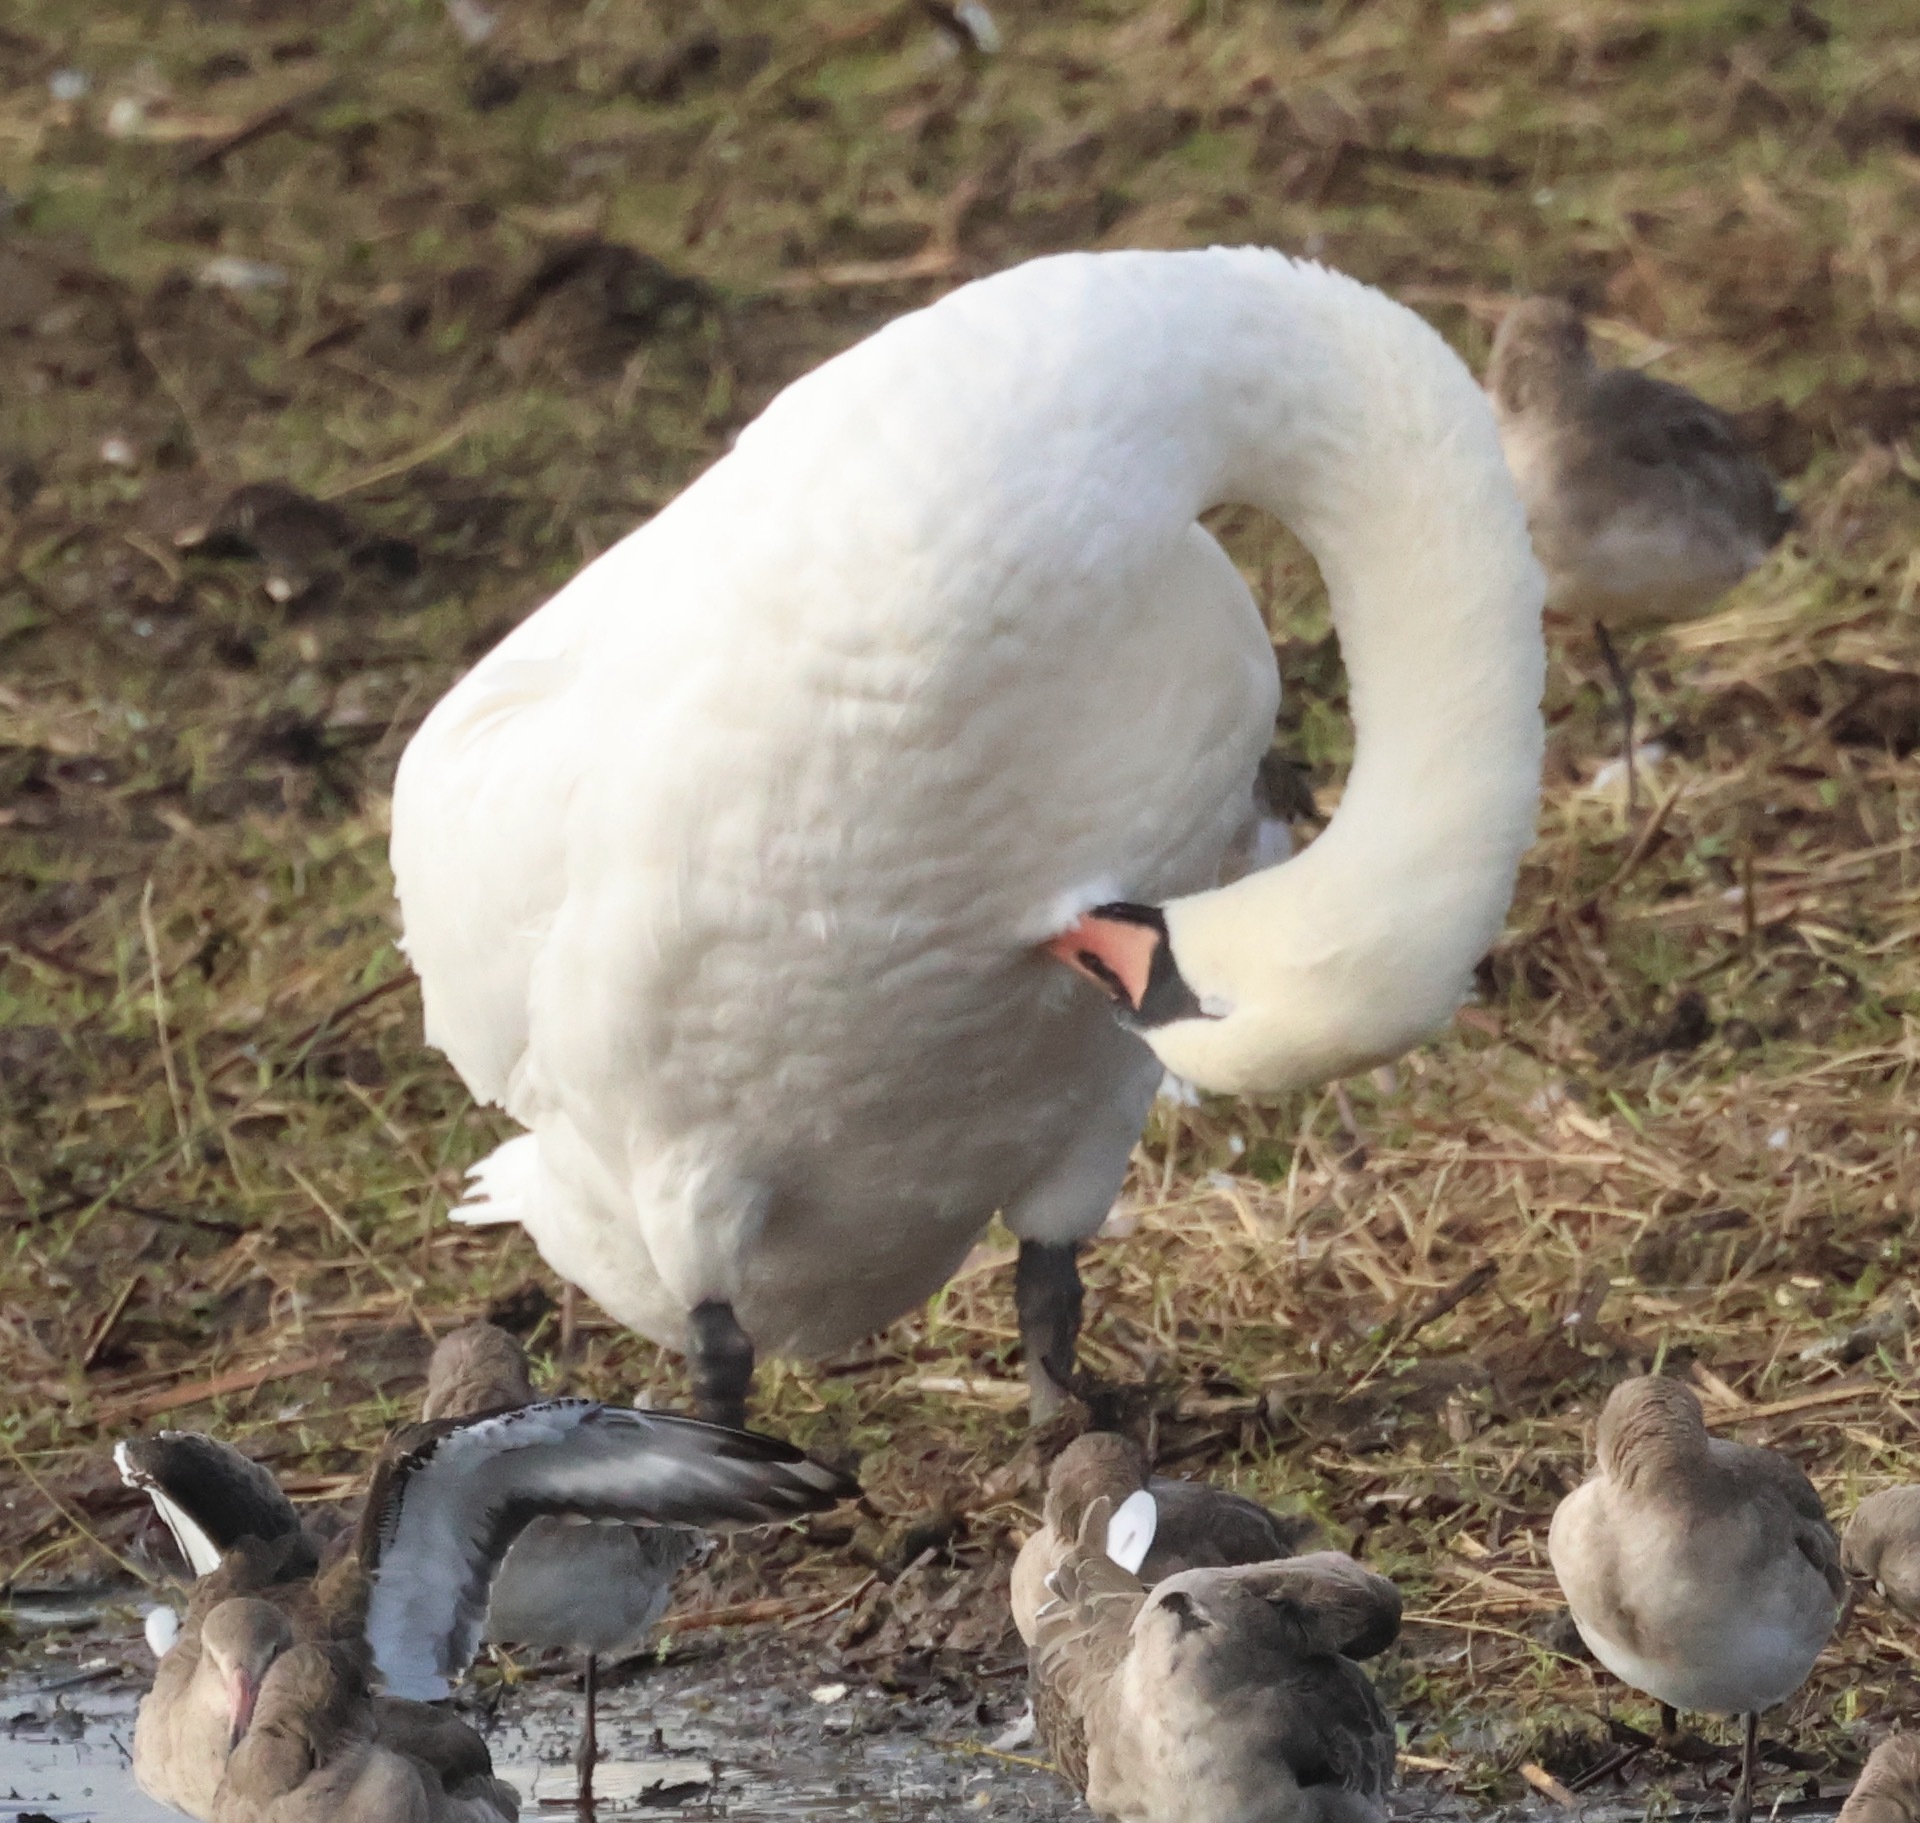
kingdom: Animalia
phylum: Chordata
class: Aves
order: Anseriformes
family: Anatidae
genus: Cygnus
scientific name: Cygnus olor
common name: Mute swan
